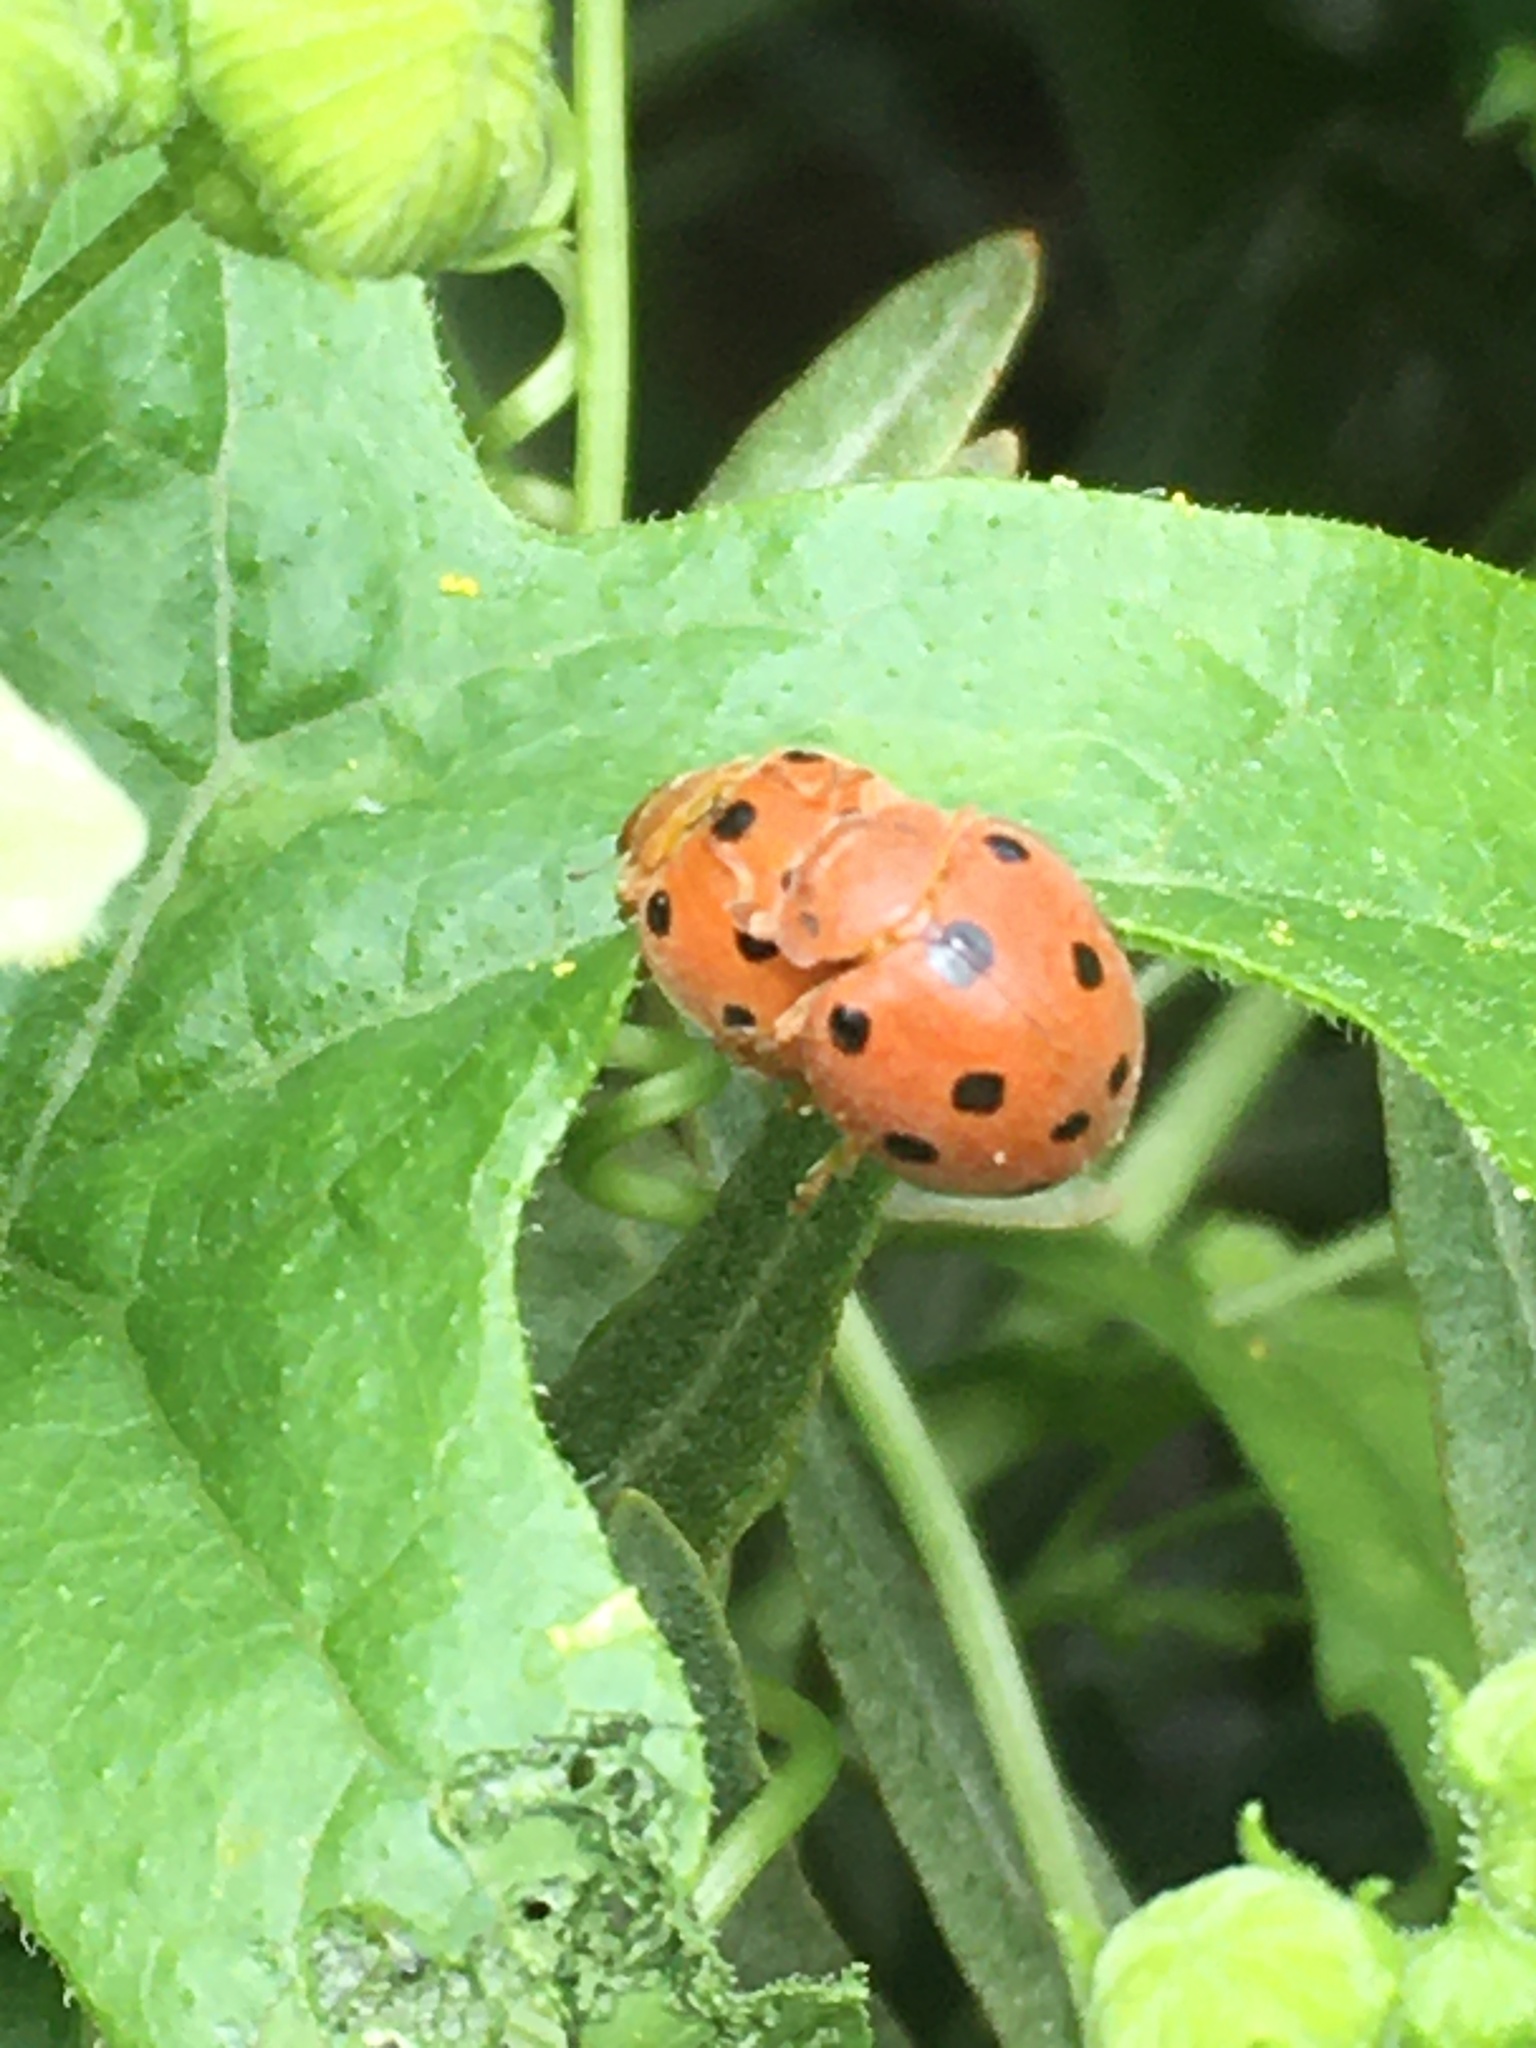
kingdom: Animalia
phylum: Arthropoda
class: Insecta
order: Coleoptera
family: Coccinellidae
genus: Henosepilachna
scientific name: Henosepilachna argus
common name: Bryony ladybird
